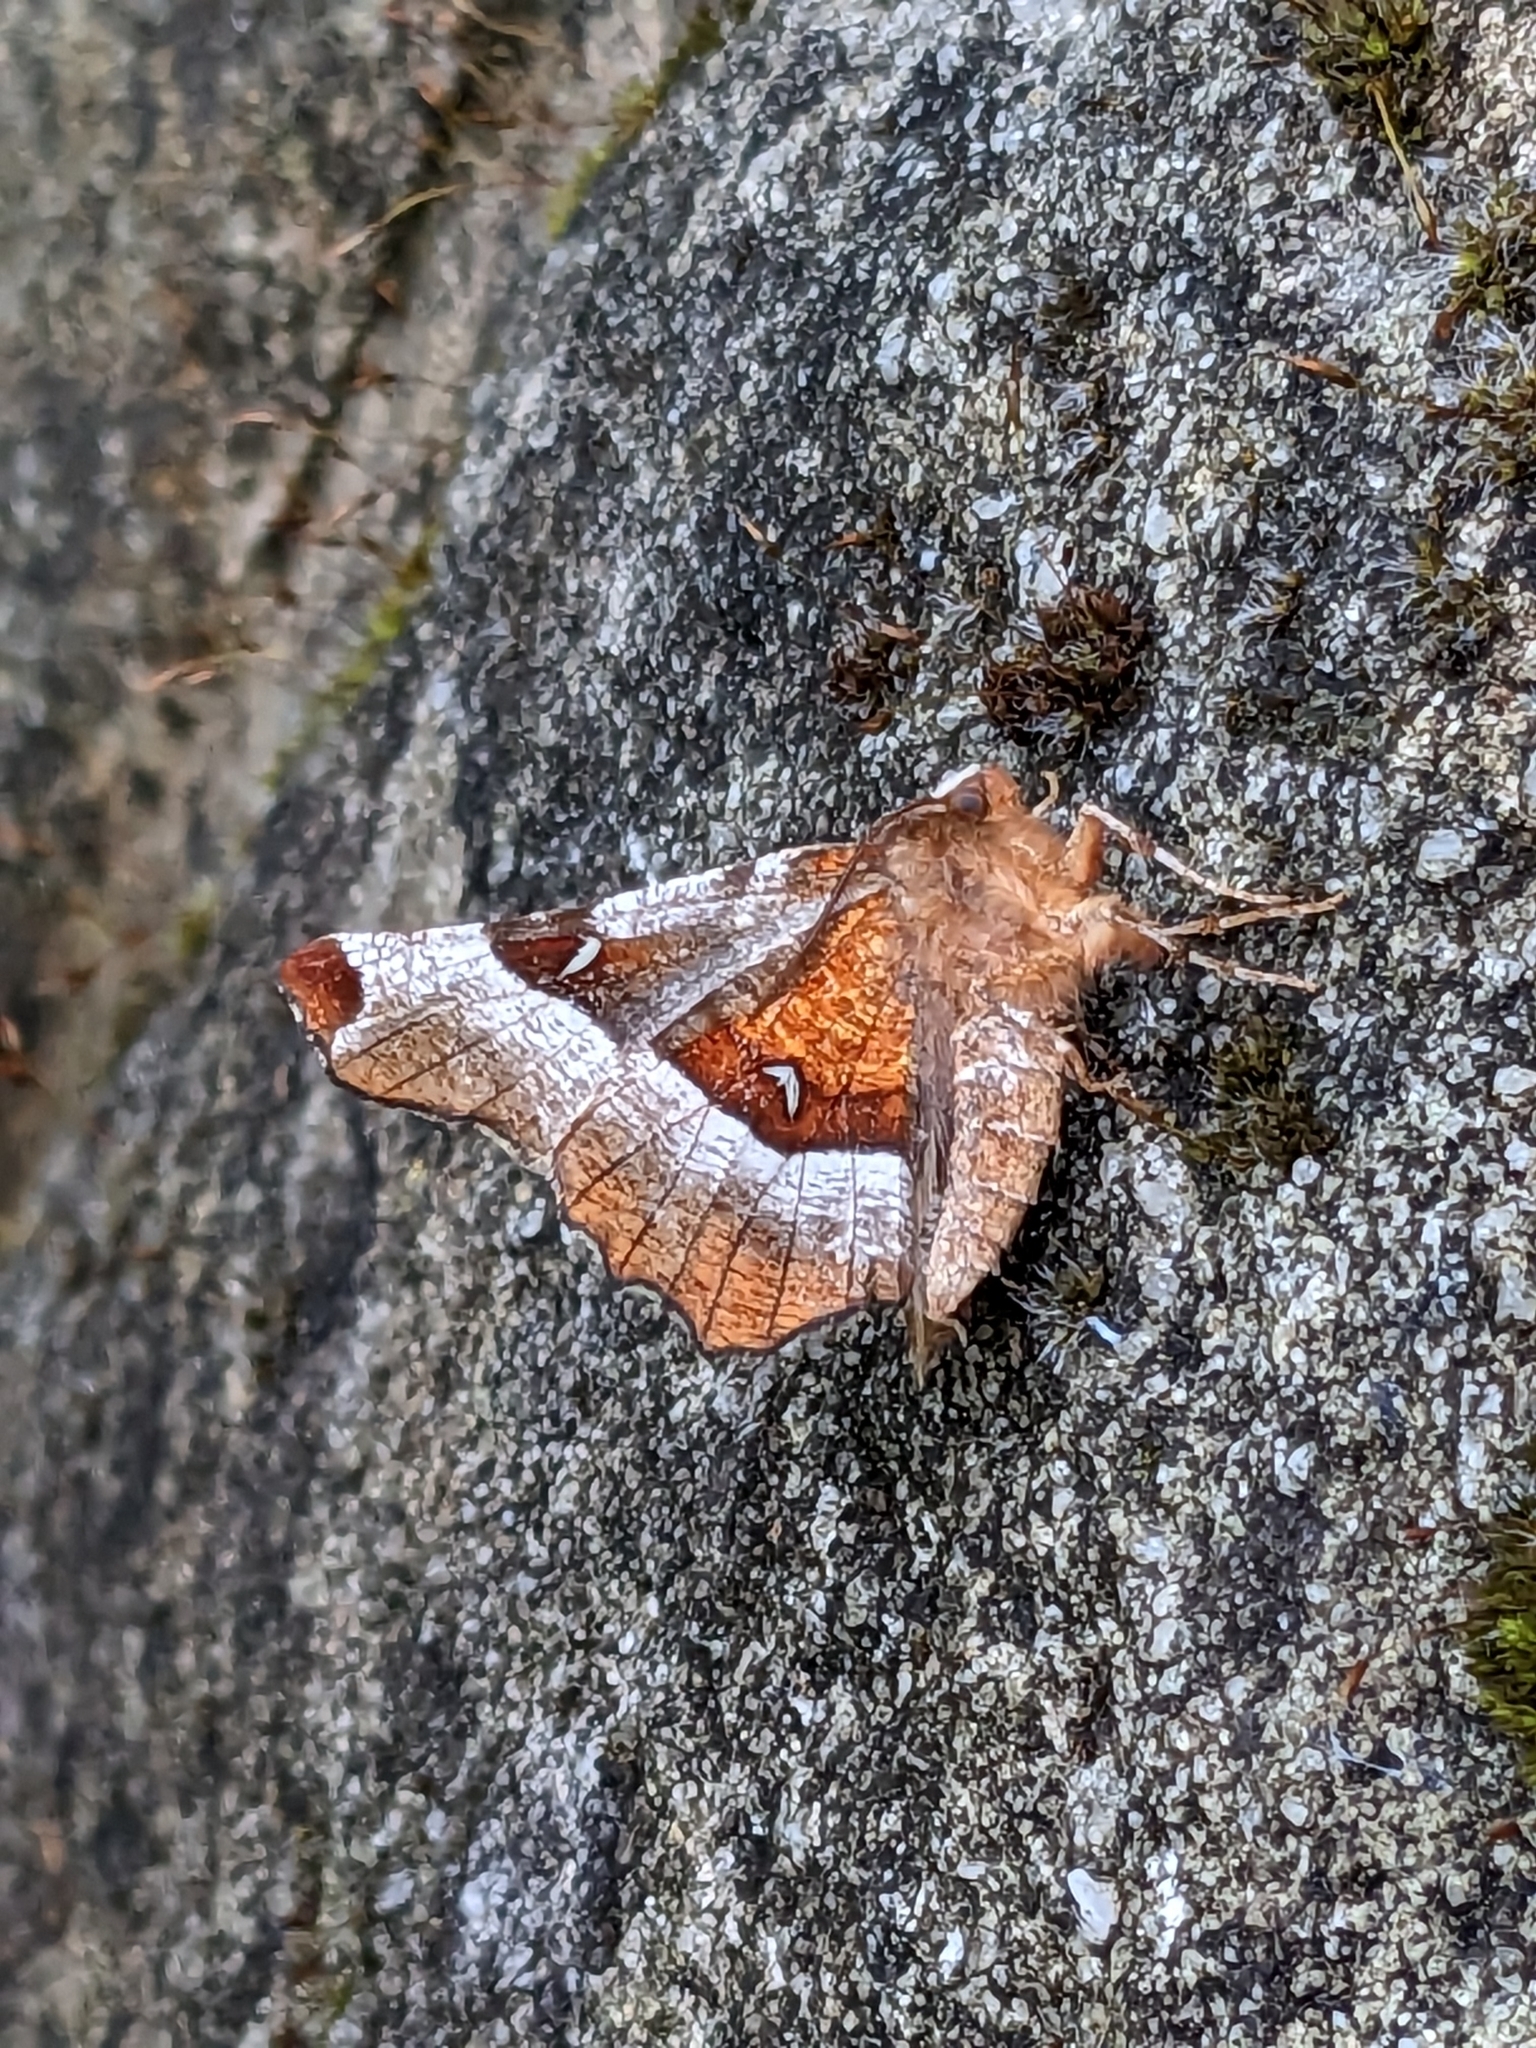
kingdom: Animalia
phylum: Arthropoda
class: Insecta
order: Lepidoptera
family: Geometridae
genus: Selenia
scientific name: Selenia tetralunaria
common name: Purple thorn
